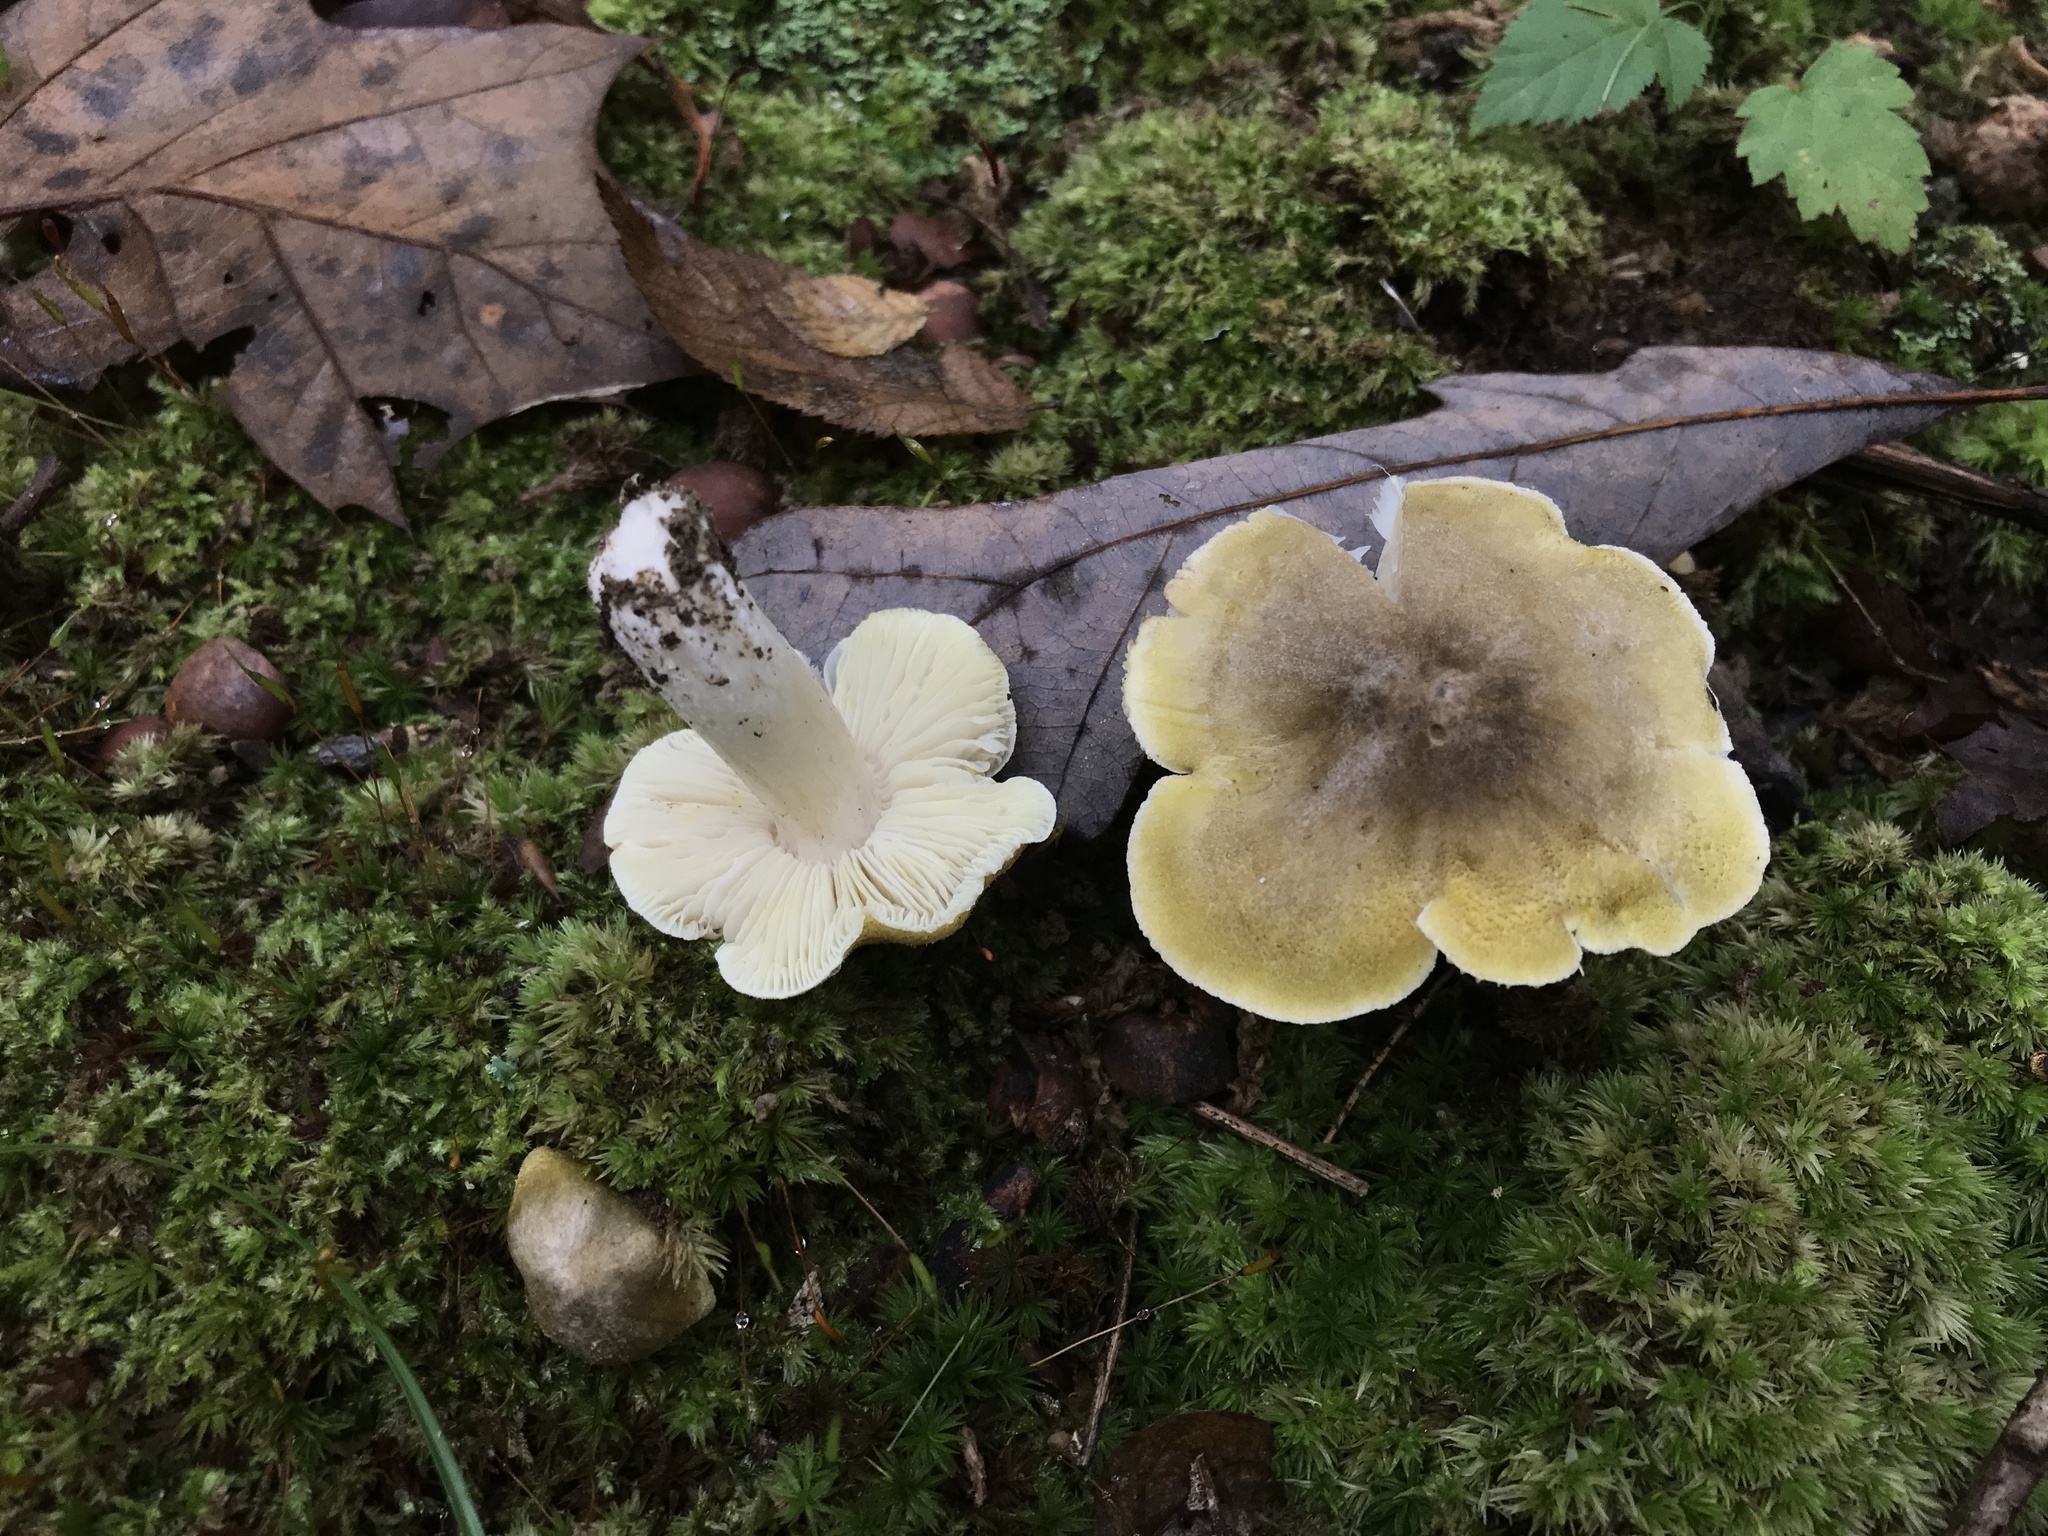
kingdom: Fungi
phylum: Basidiomycota
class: Agaricomycetes
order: Agaricales
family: Tricholomataceae
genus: Tricholoma
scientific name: Tricholoma subaureum
